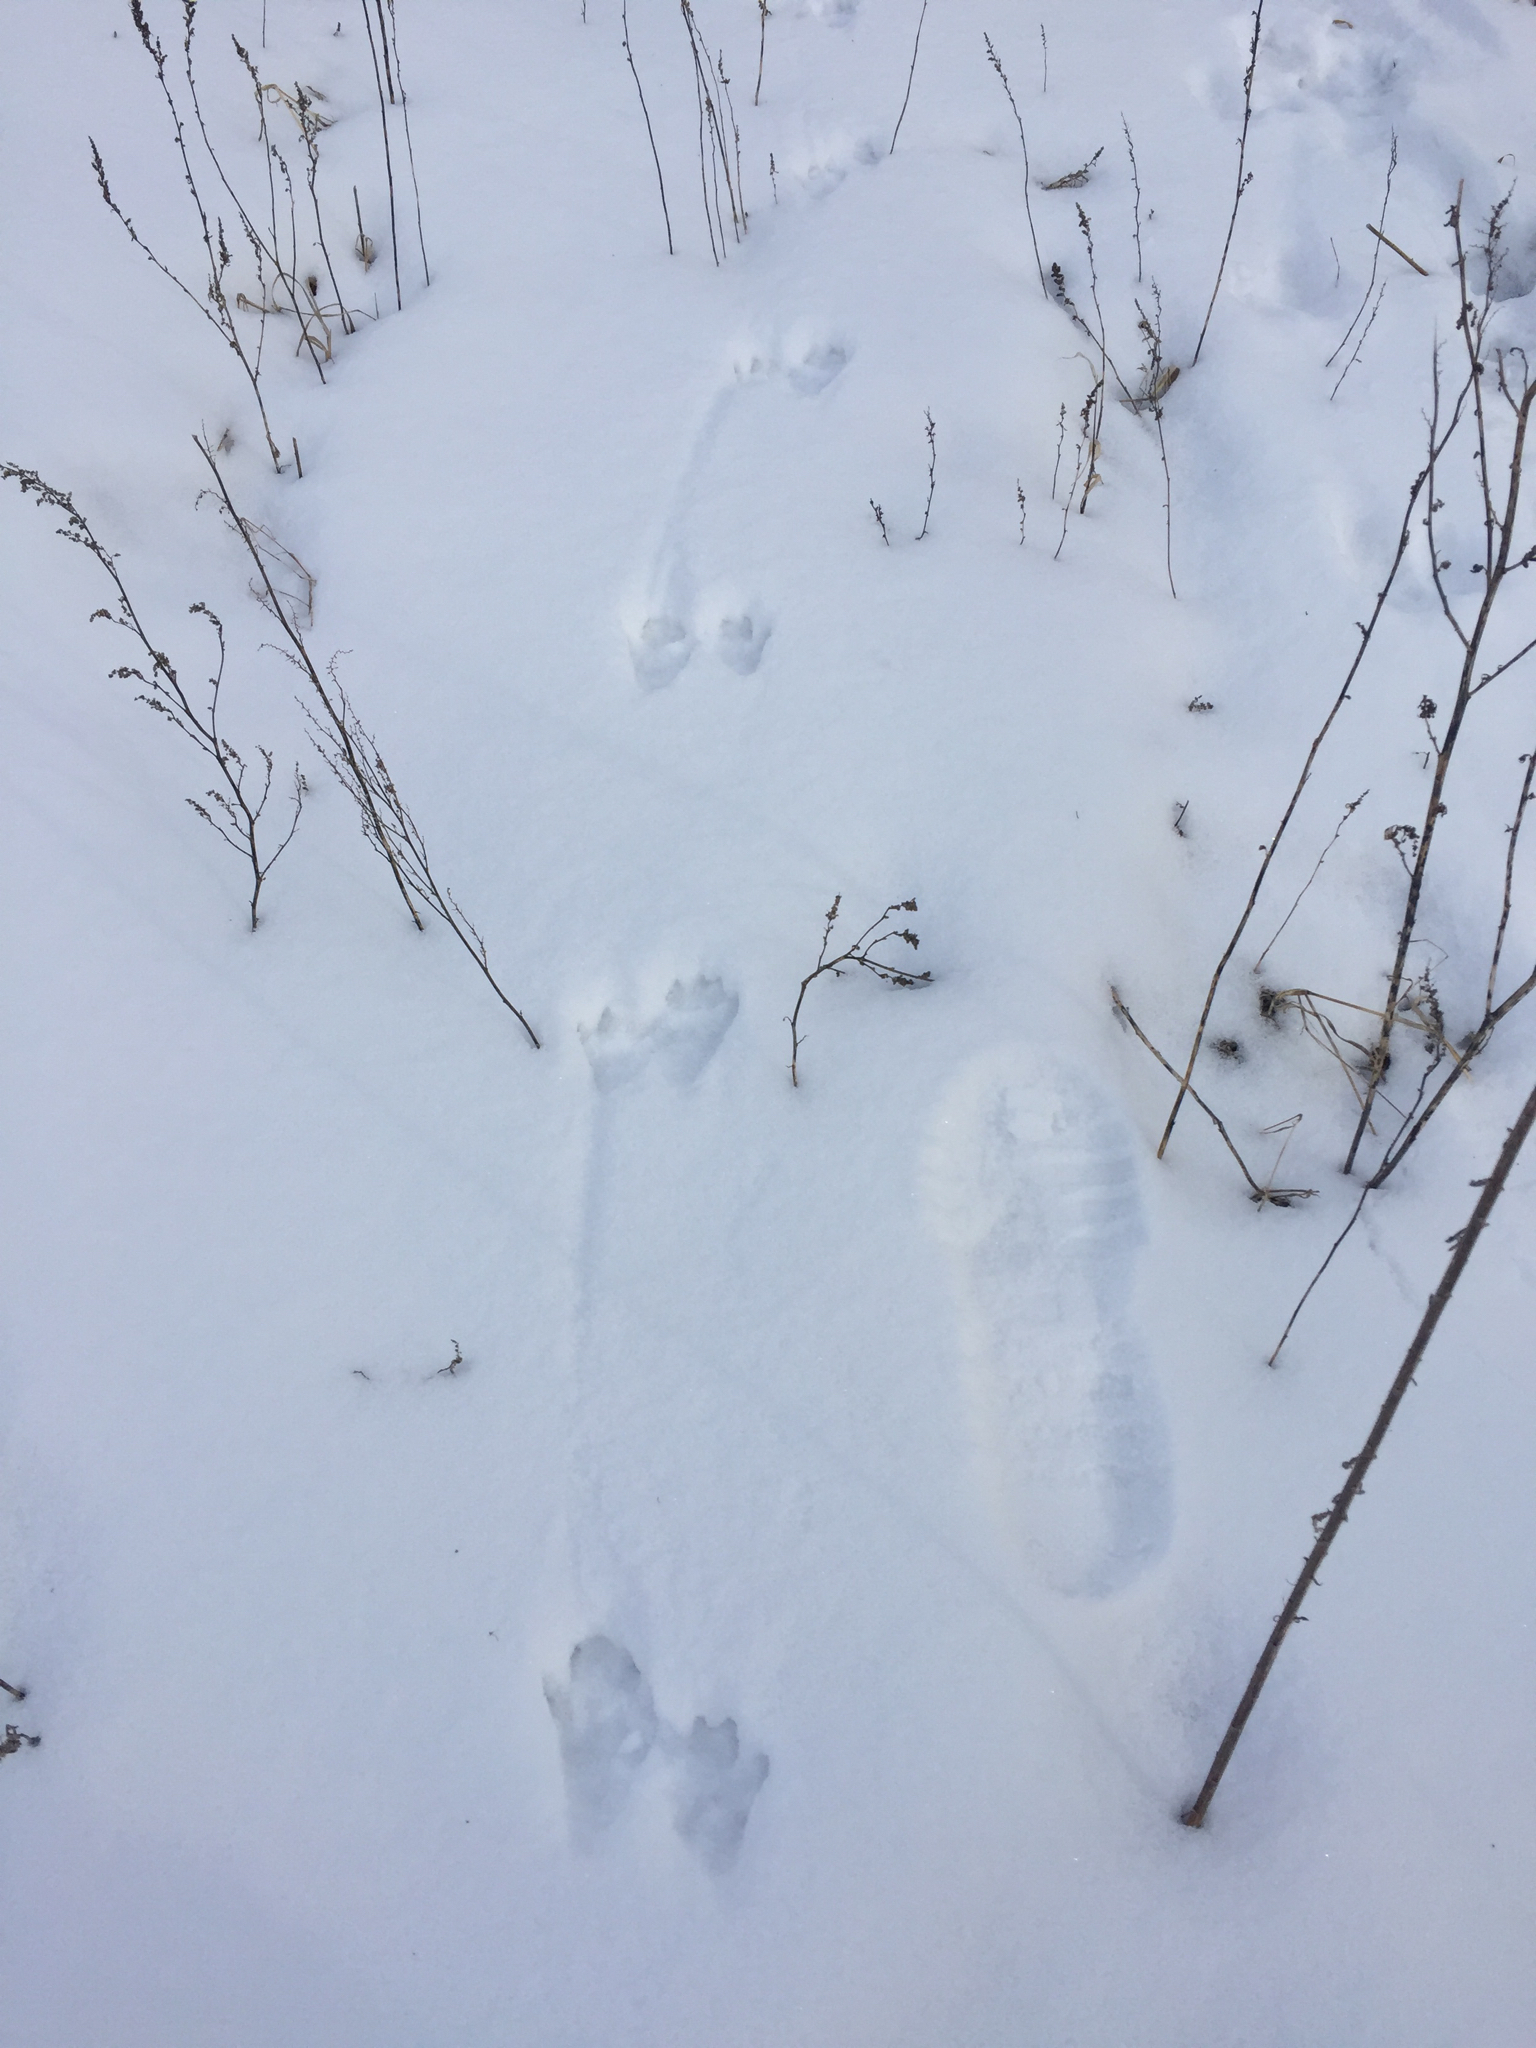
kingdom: Animalia
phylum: Chordata
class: Mammalia
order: Carnivora
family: Procyonidae
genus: Procyon
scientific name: Procyon lotor
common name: Raccoon
